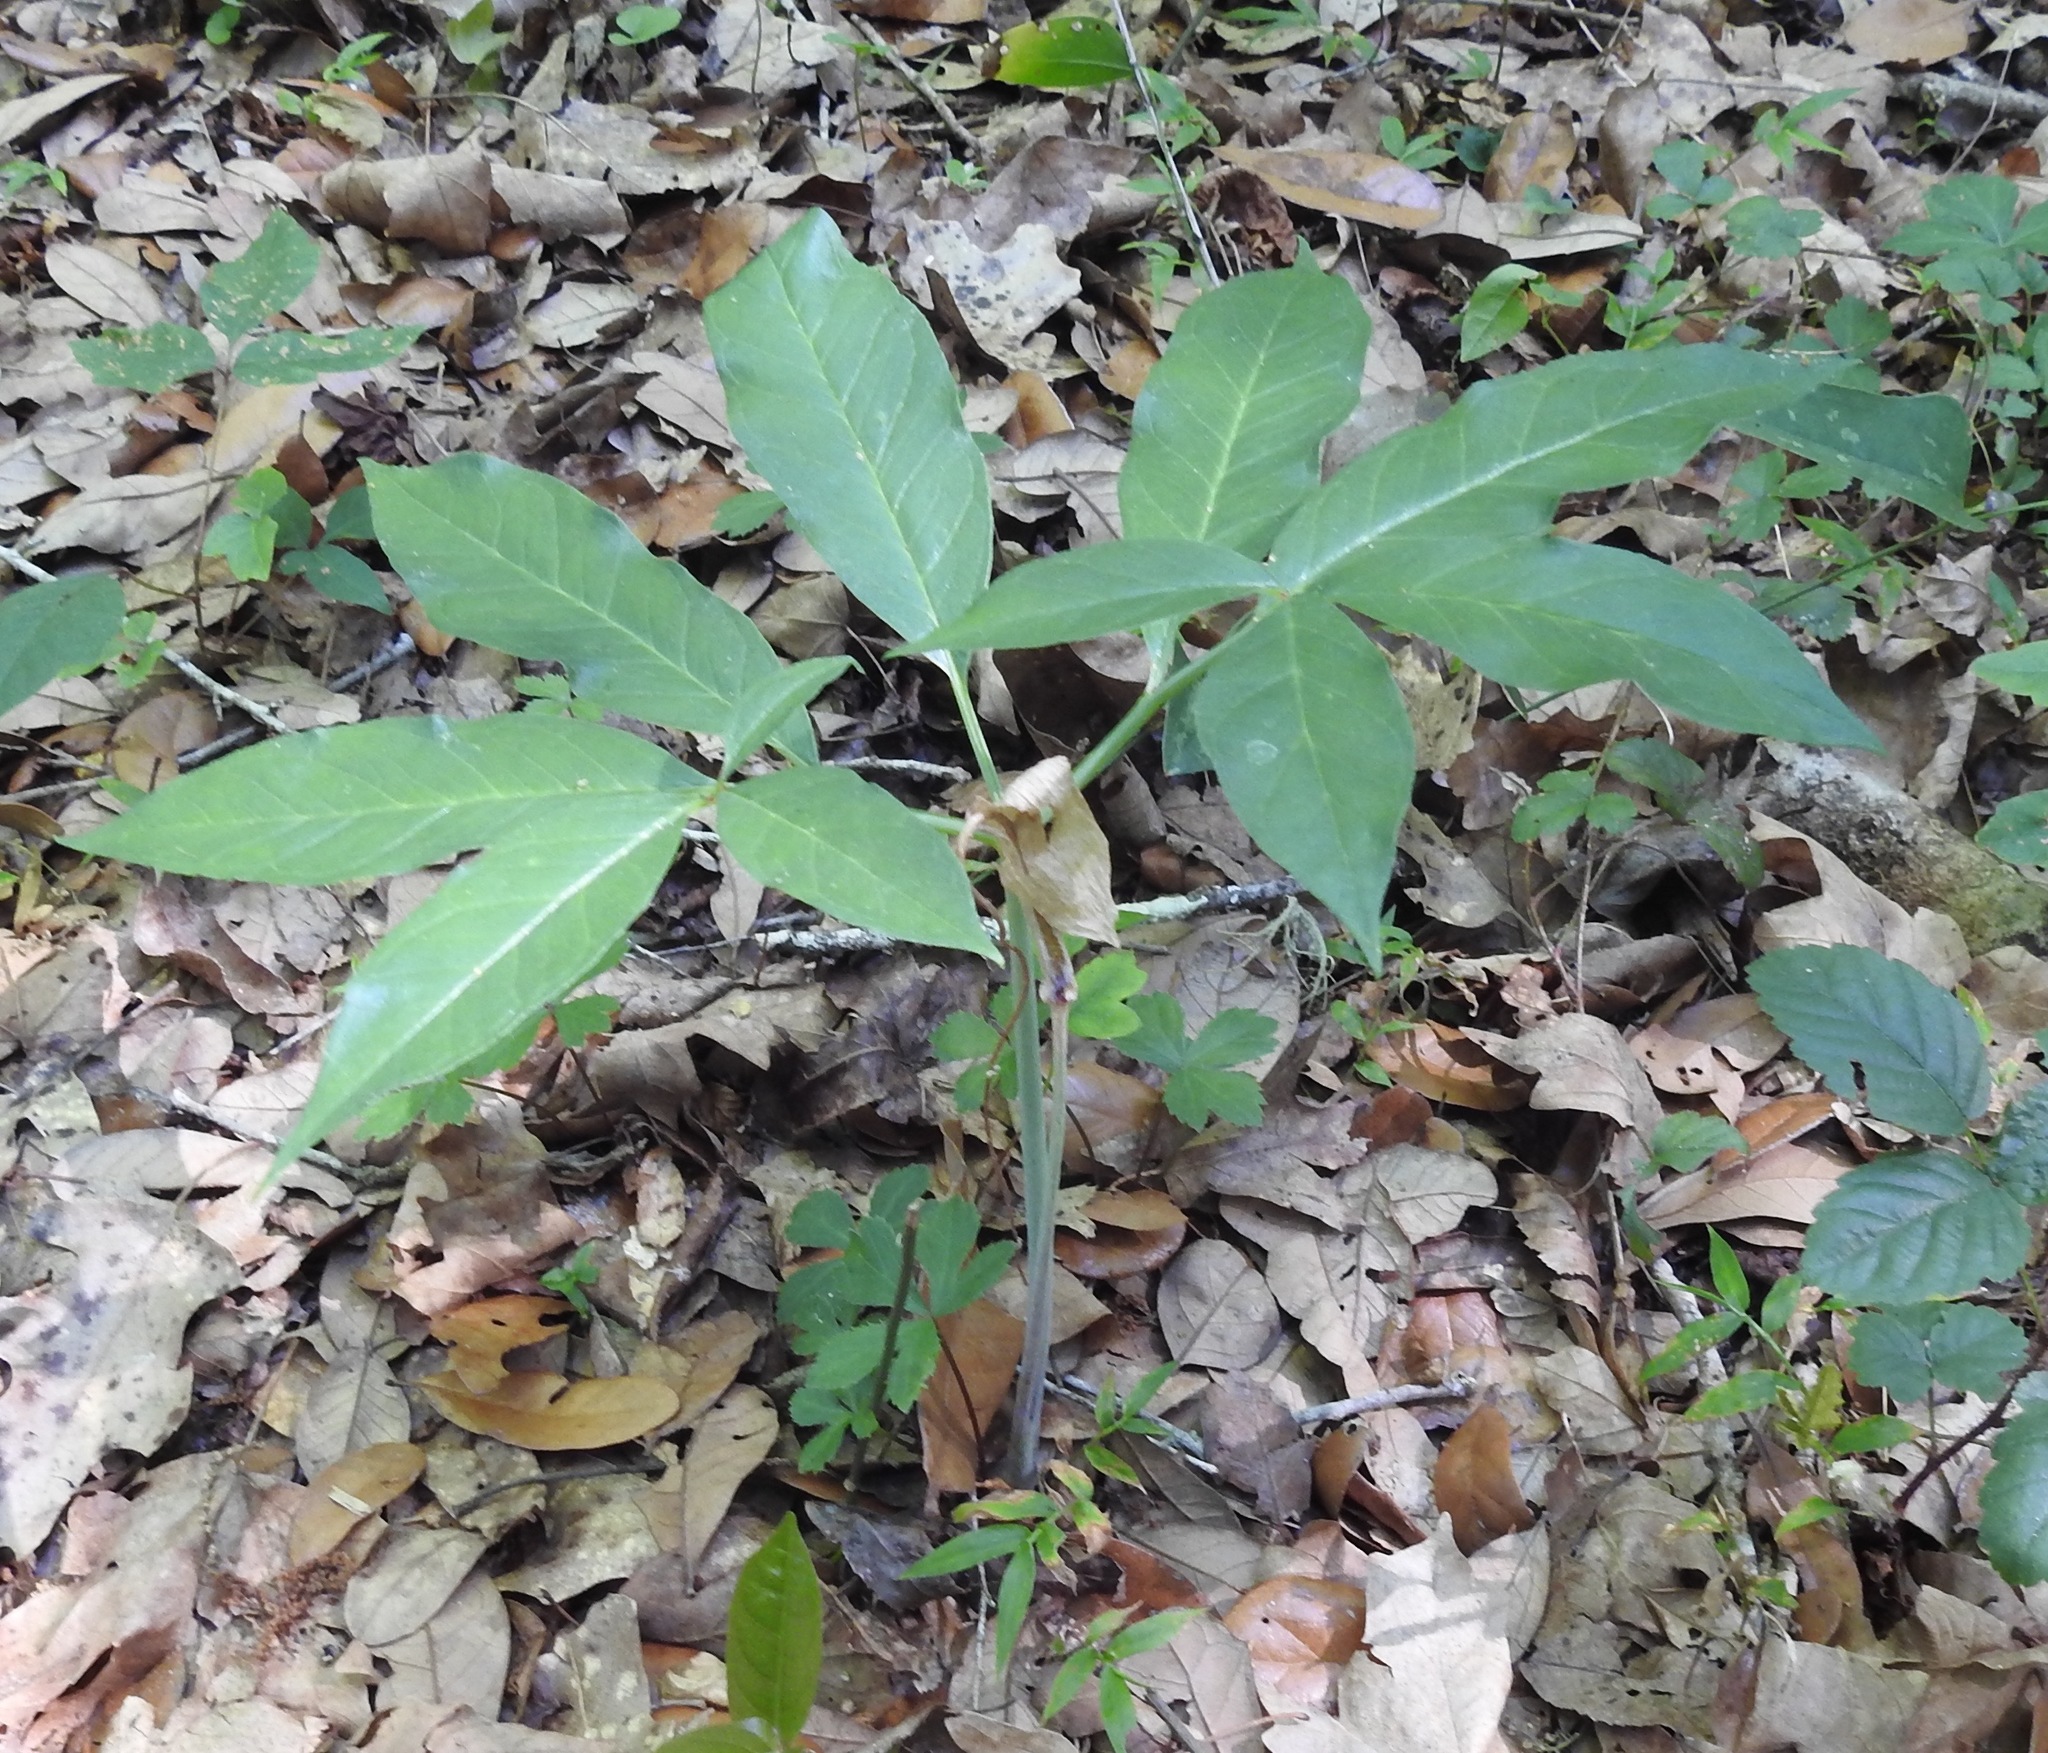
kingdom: Plantae
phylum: Tracheophyta
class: Liliopsida
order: Alismatales
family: Araceae
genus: Arisaema
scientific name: Arisaema dracontium
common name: Dragon-arum
